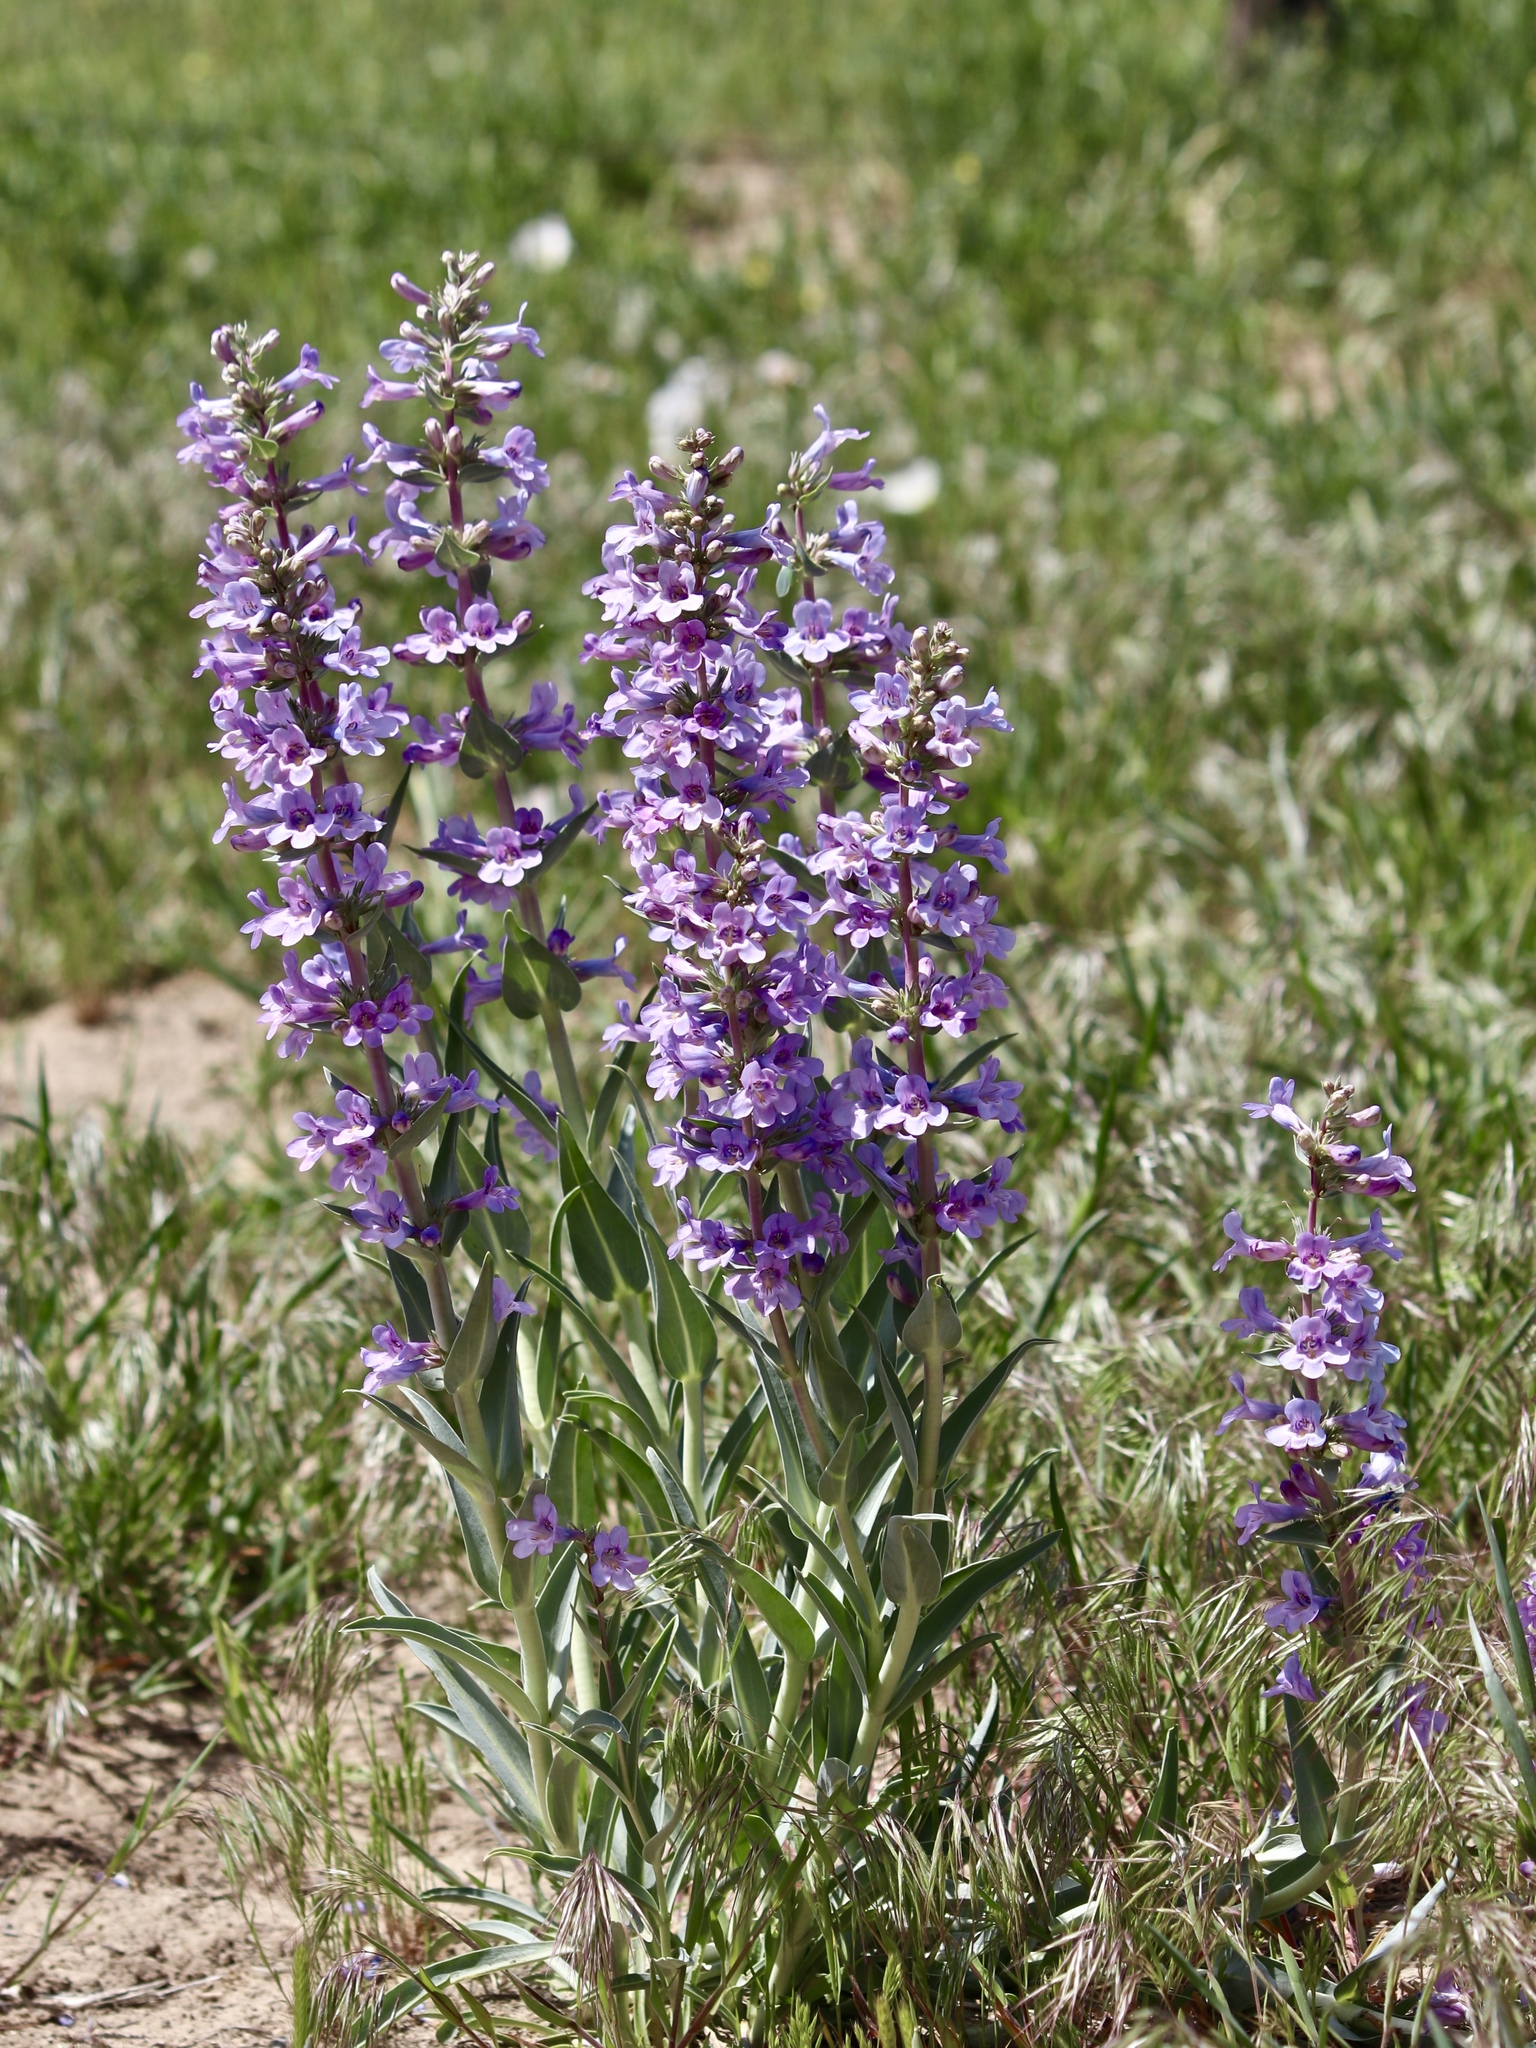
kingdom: Plantae
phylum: Tracheophyta
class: Magnoliopsida
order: Lamiales
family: Plantaginaceae
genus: Penstemon
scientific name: Penstemon angustifolius
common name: Narrow beardtongue
